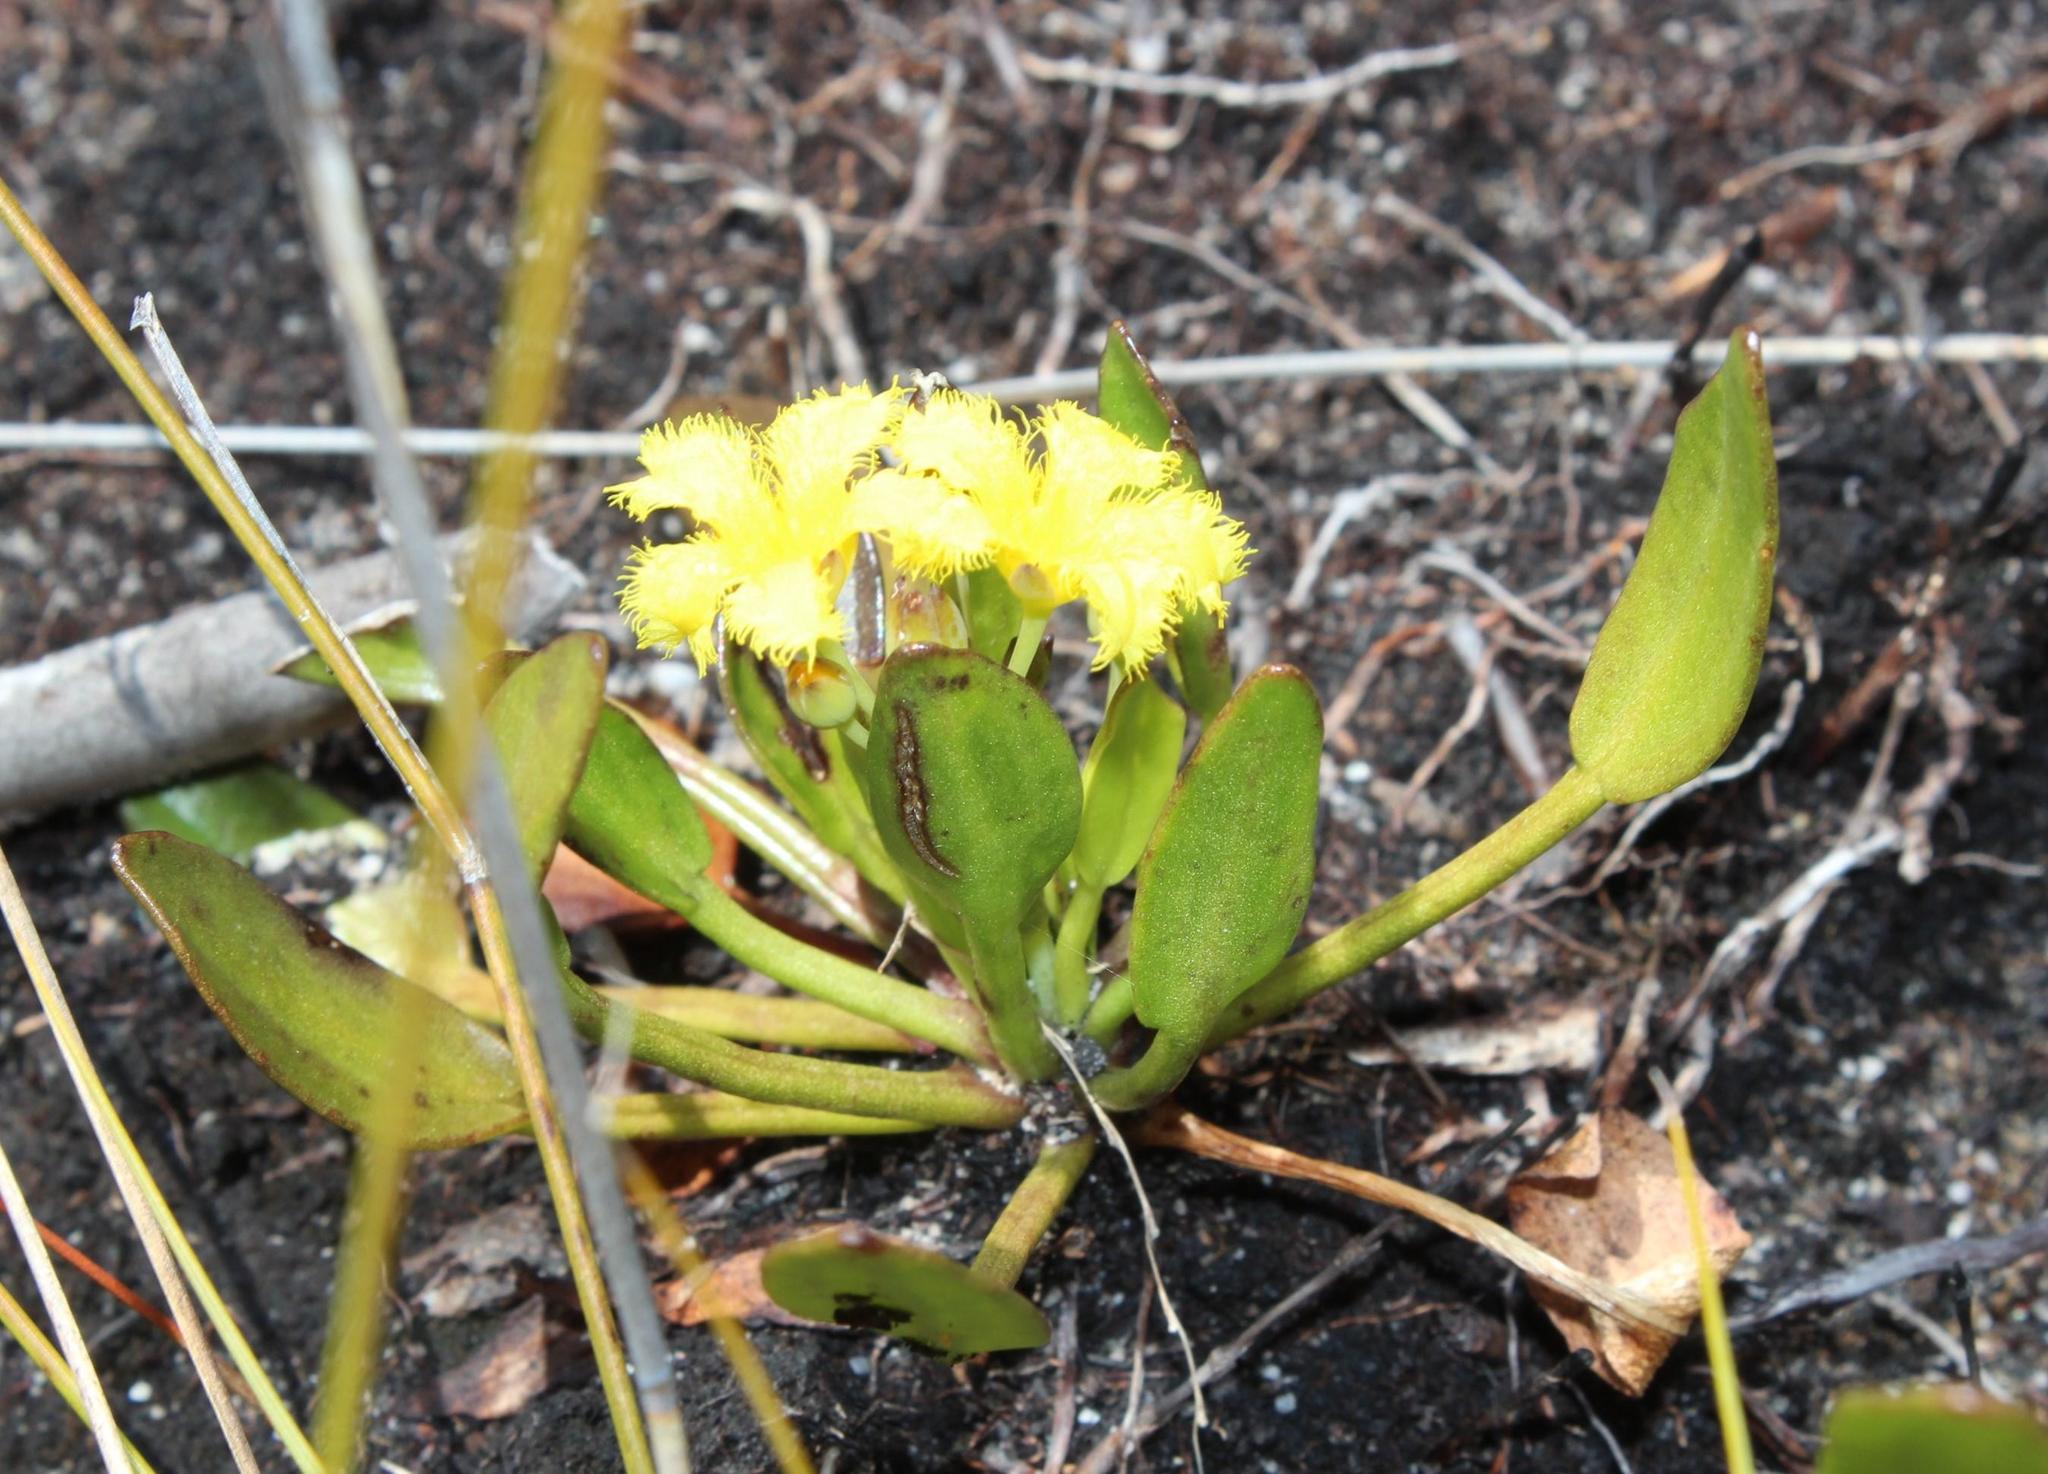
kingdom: Plantae
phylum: Tracheophyta
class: Magnoliopsida
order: Asterales
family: Menyanthaceae
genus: Villarsia
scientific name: Villarsia manningiana
